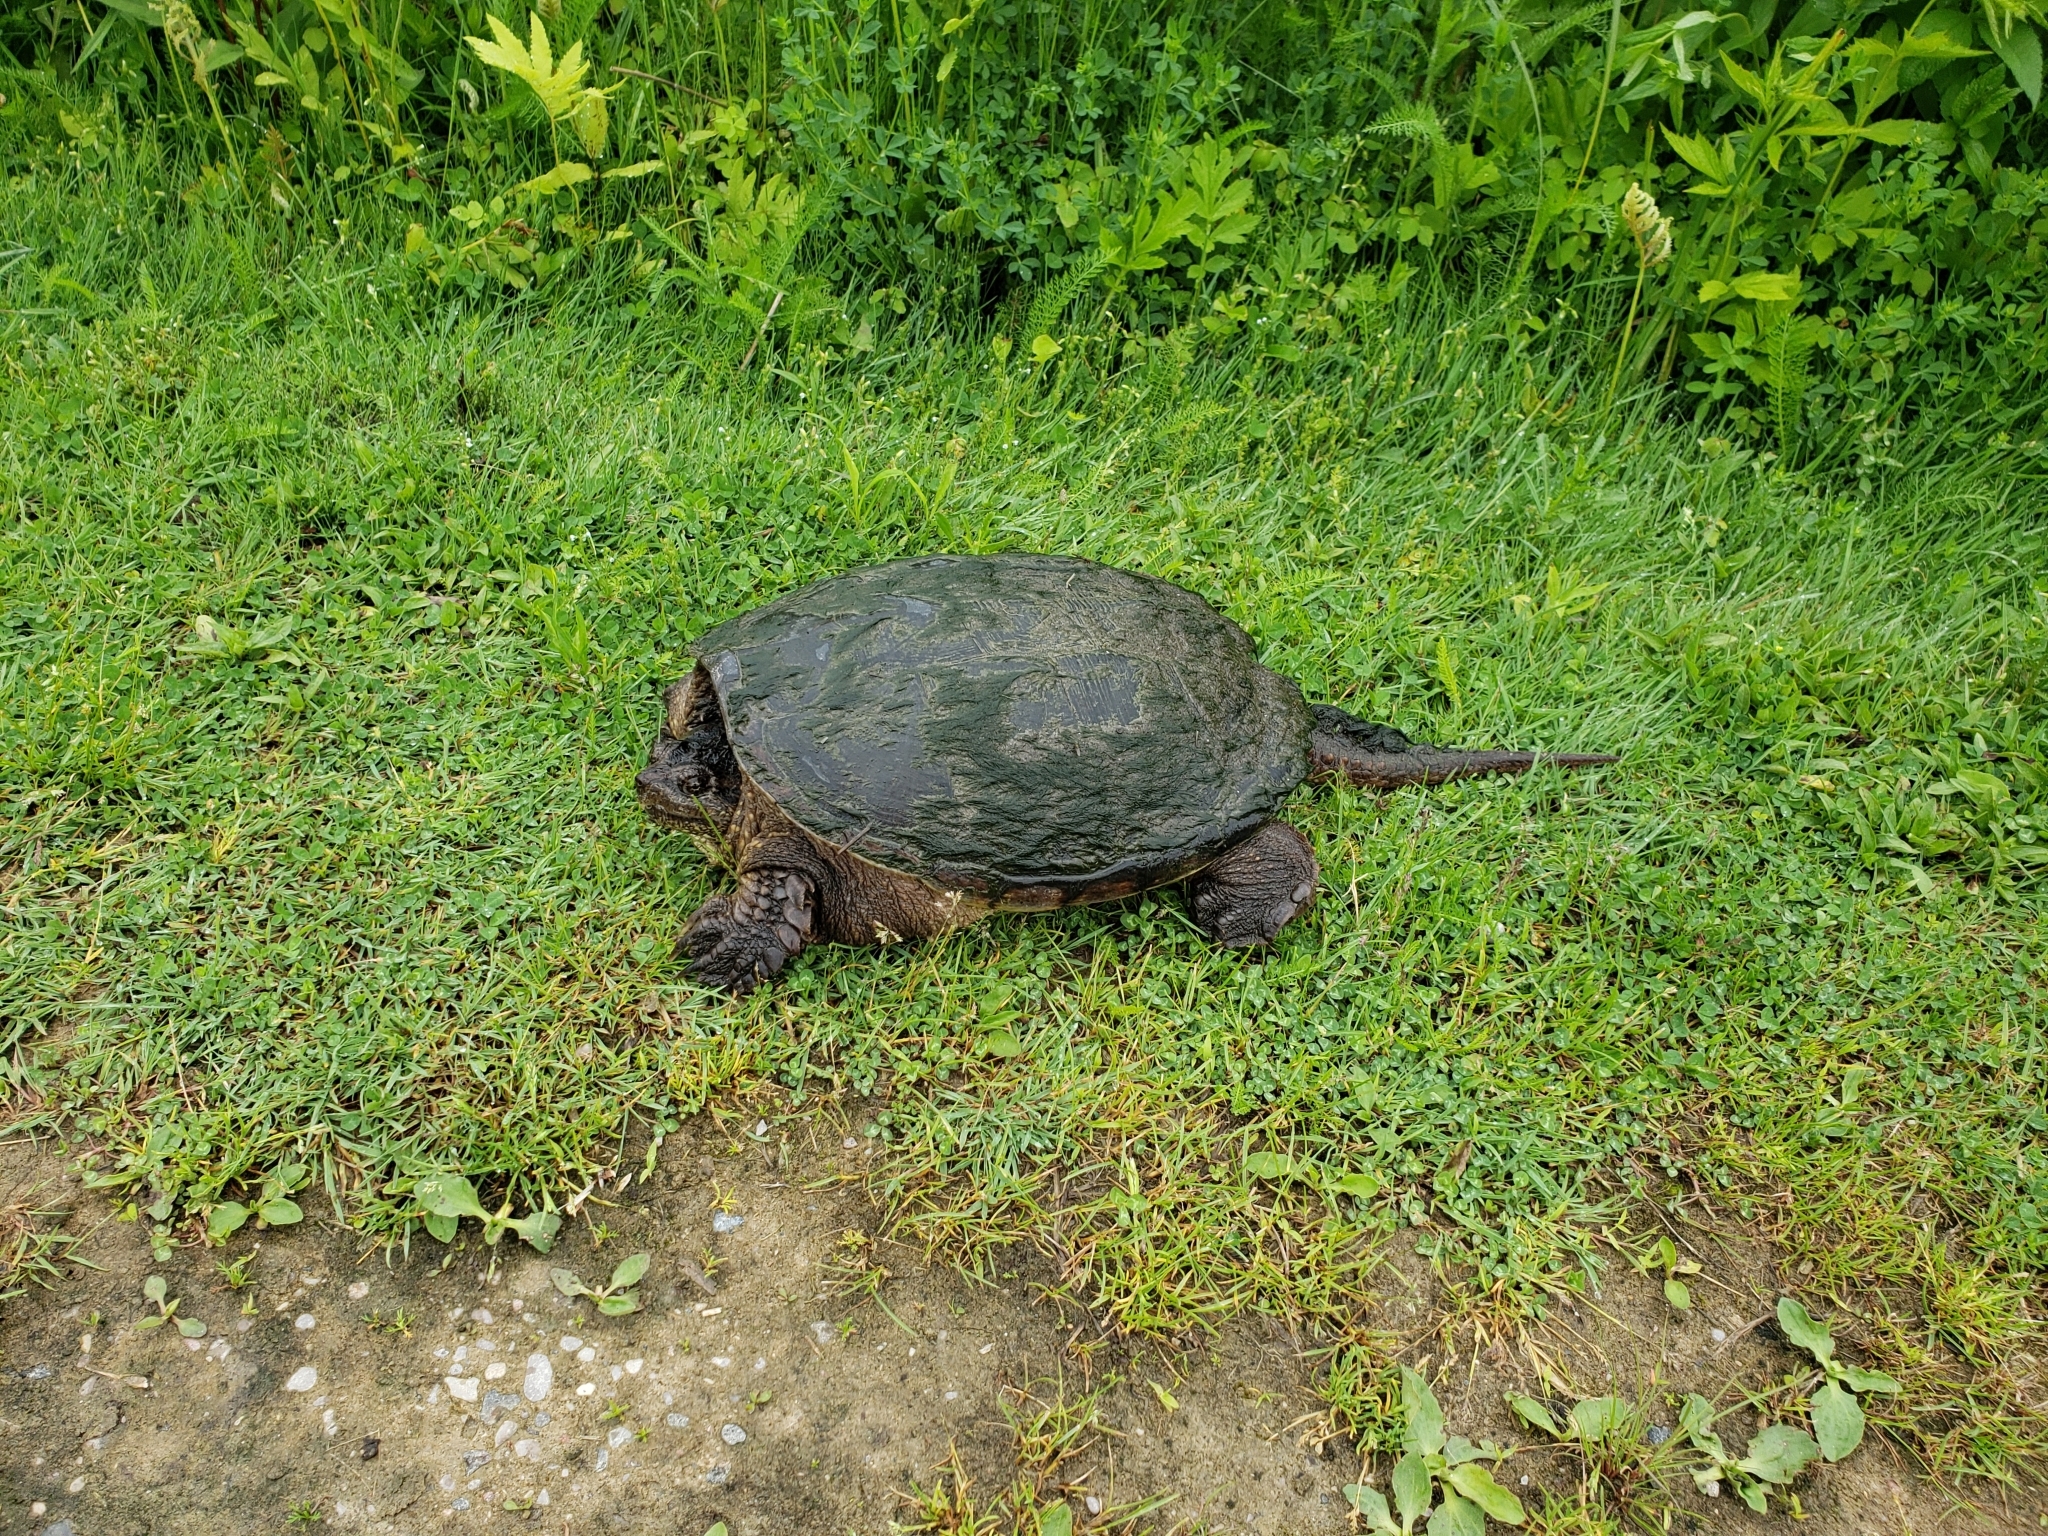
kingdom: Animalia
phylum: Chordata
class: Testudines
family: Chelydridae
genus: Chelydra
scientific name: Chelydra serpentina
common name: Common snapping turtle
